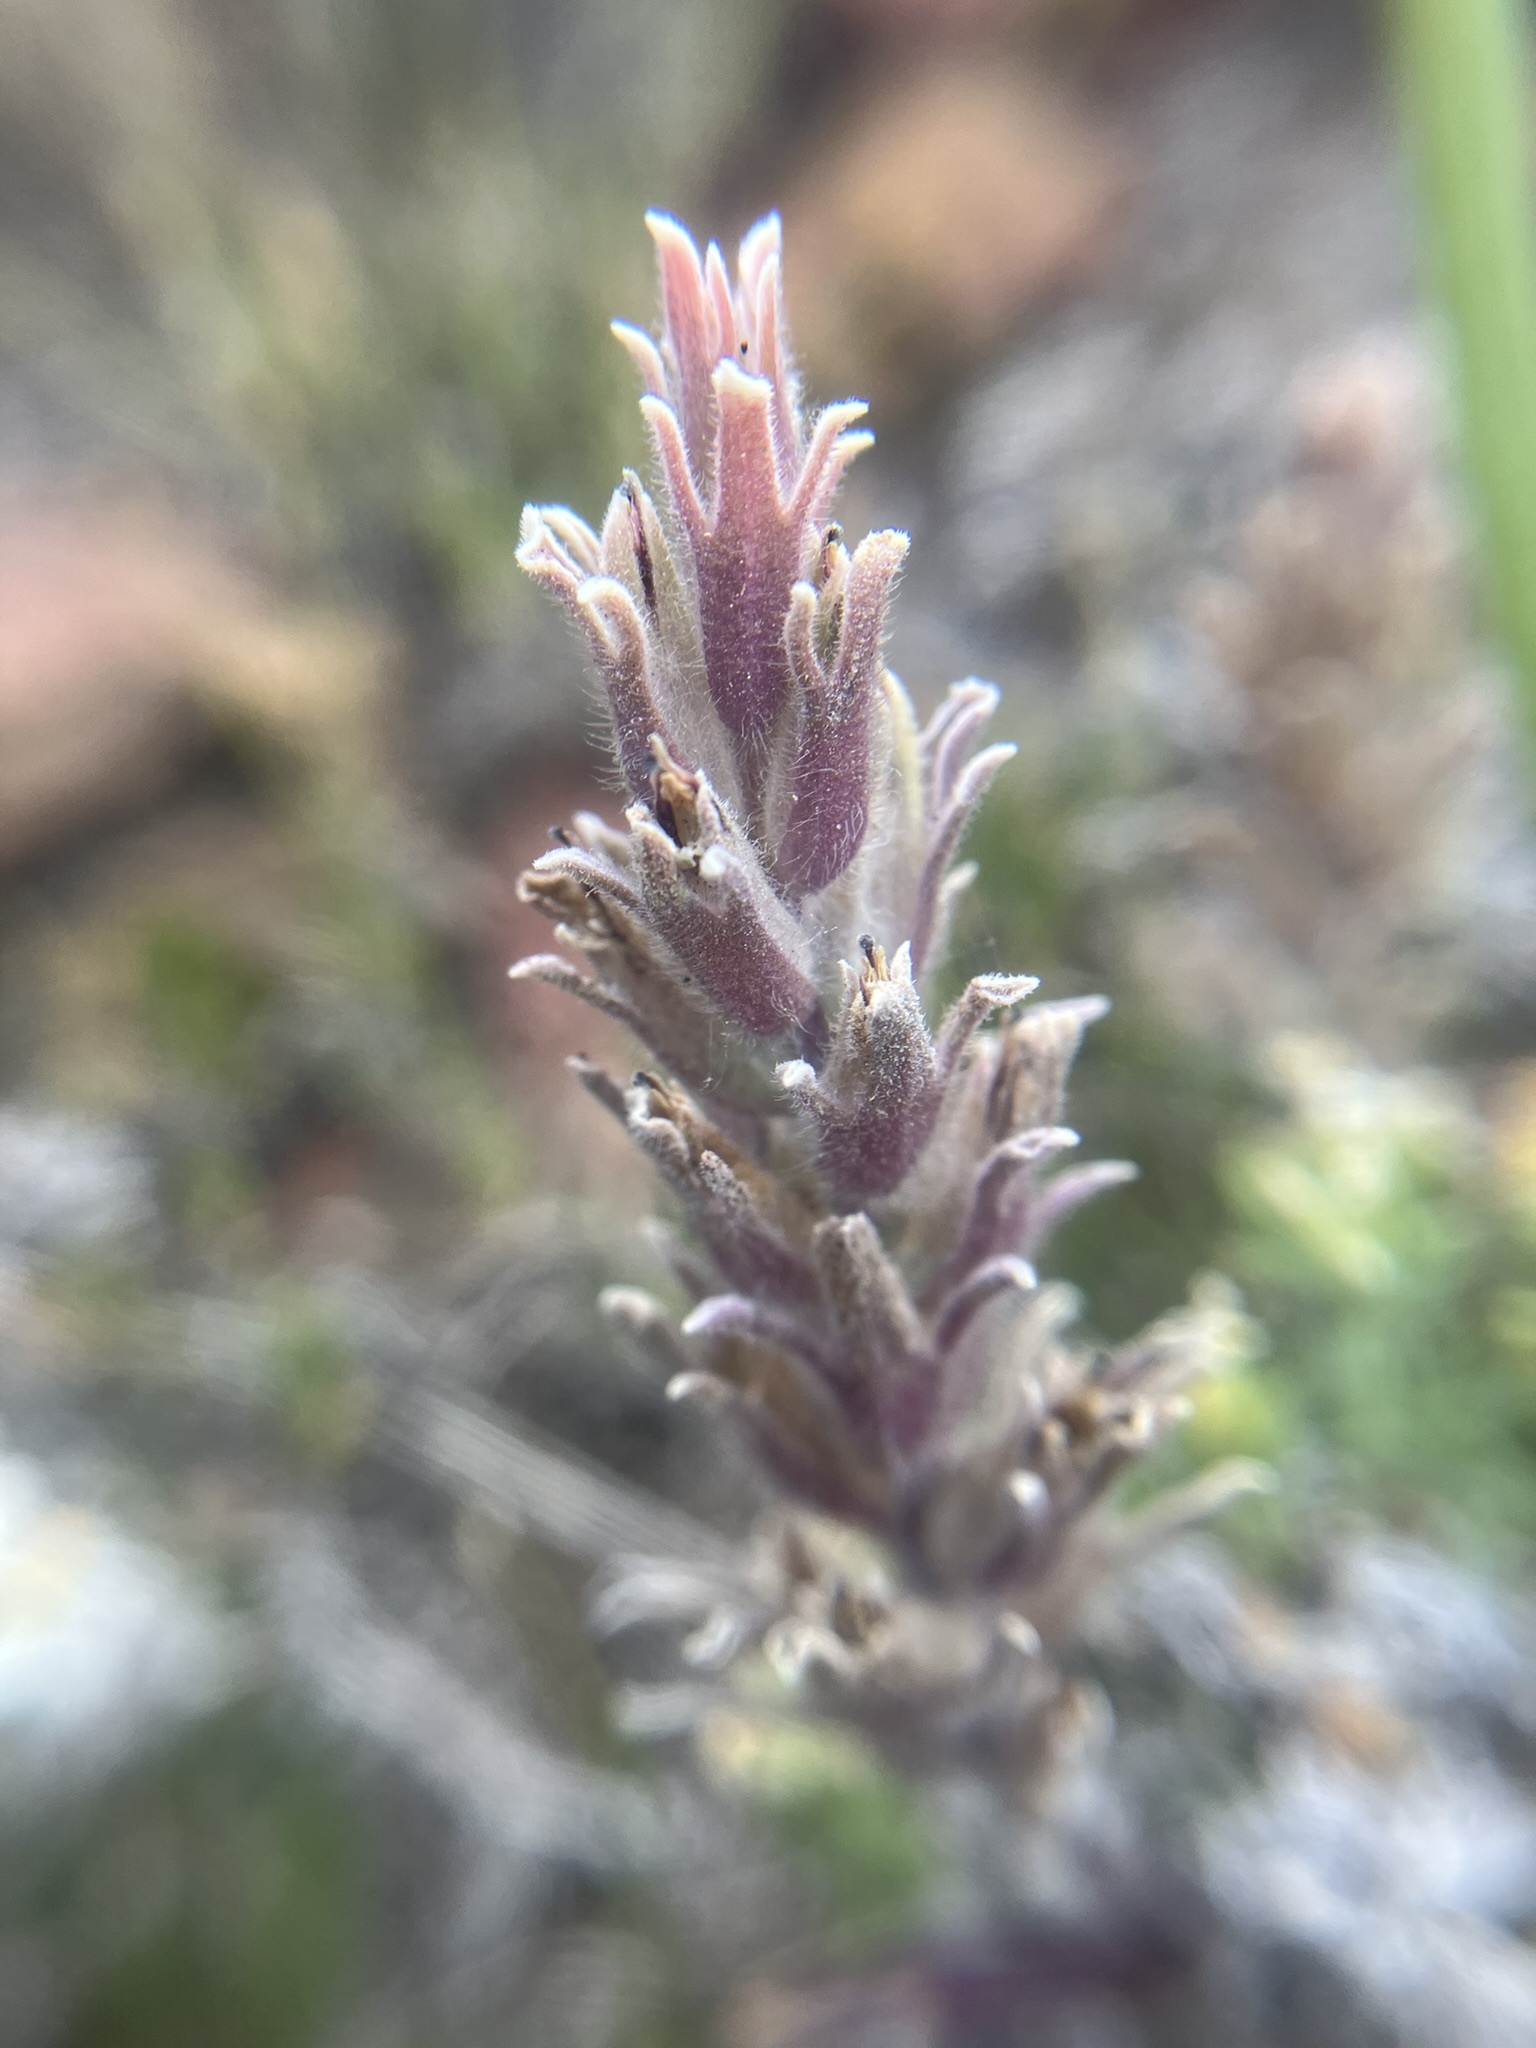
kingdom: Plantae
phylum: Tracheophyta
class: Magnoliopsida
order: Lamiales
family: Orobanchaceae
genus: Castilleja
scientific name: Castilleja nana
